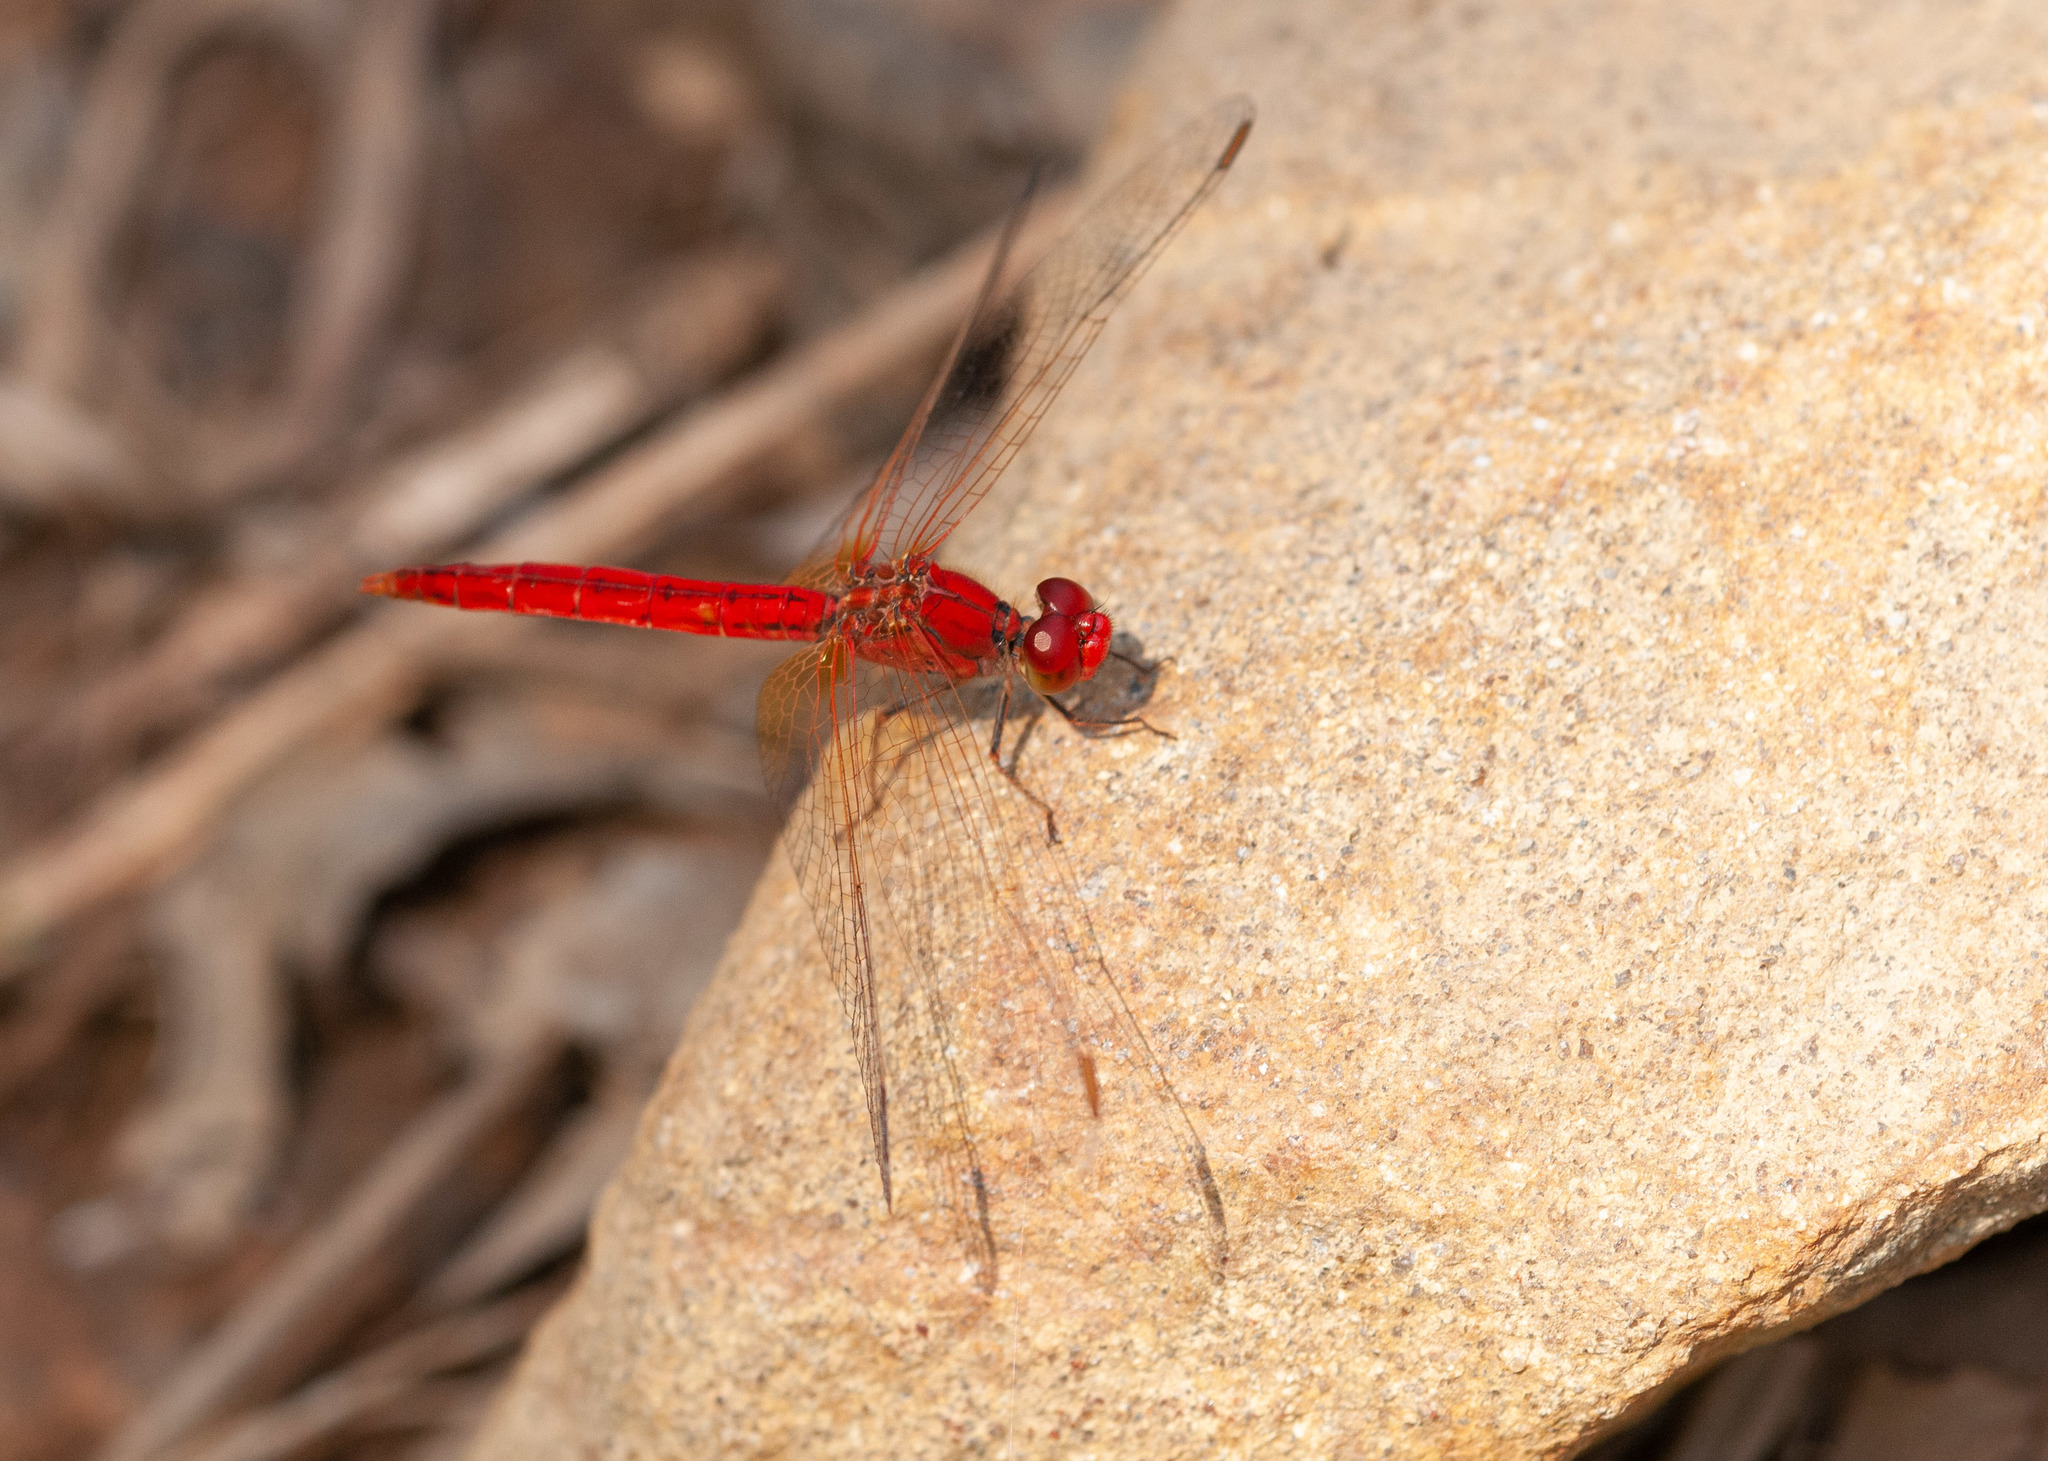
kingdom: Animalia
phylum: Arthropoda
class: Insecta
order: Odonata
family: Libellulidae
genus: Diplacodes
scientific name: Diplacodes haematodes
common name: Scarlet percher
